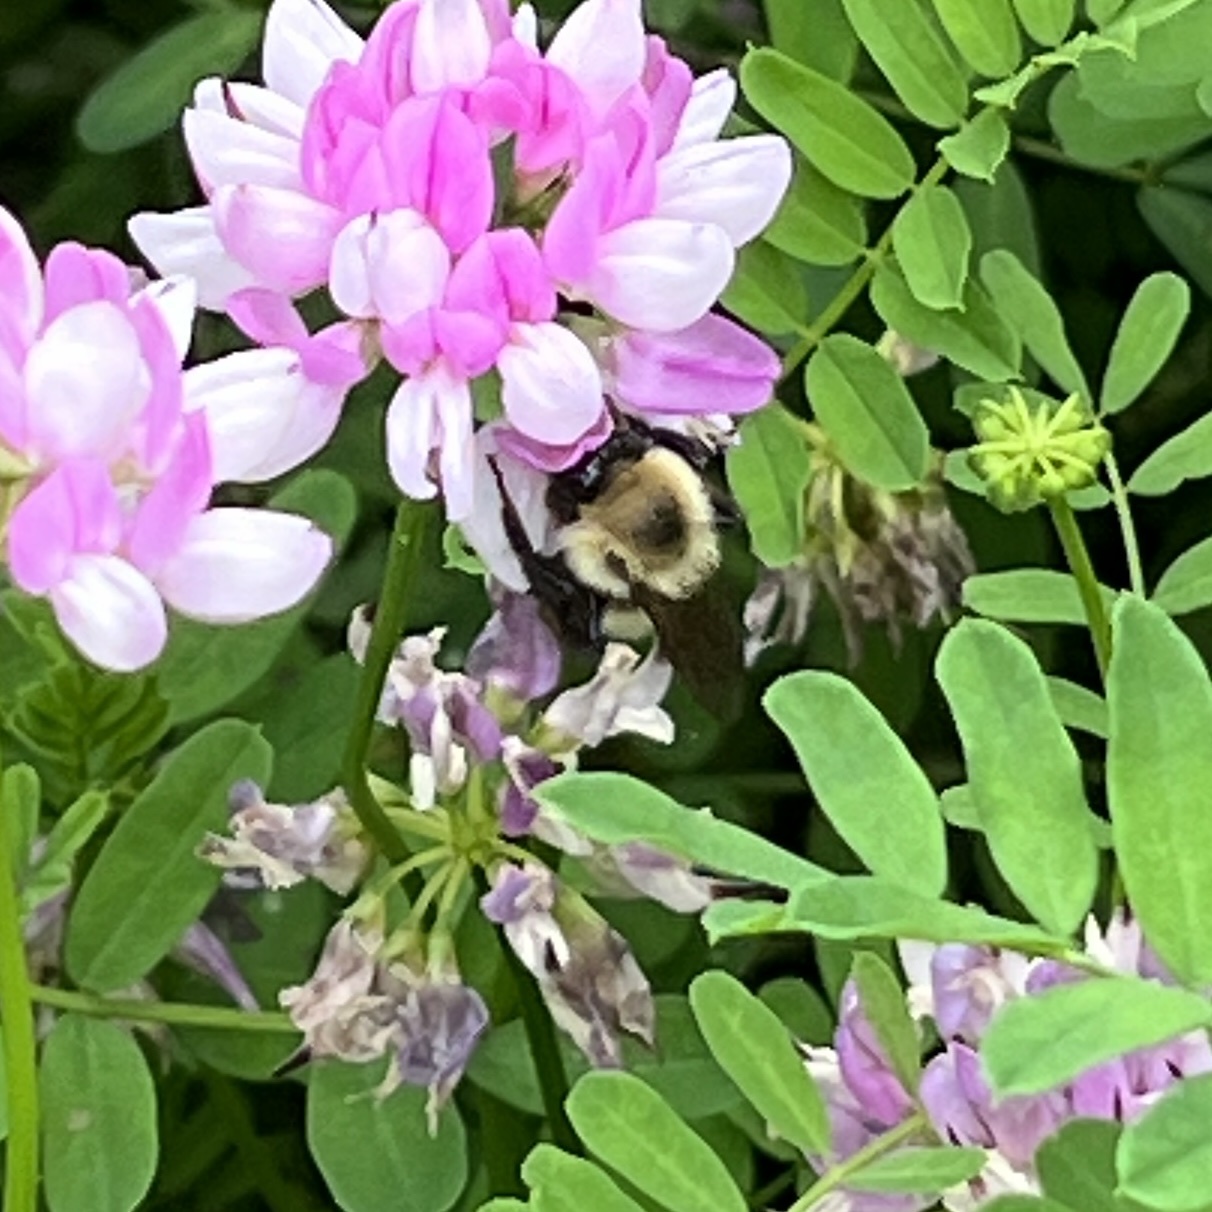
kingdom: Animalia
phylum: Arthropoda
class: Insecta
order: Hymenoptera
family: Apidae
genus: Bombus
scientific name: Bombus bimaculatus
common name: Two-spotted bumble bee
